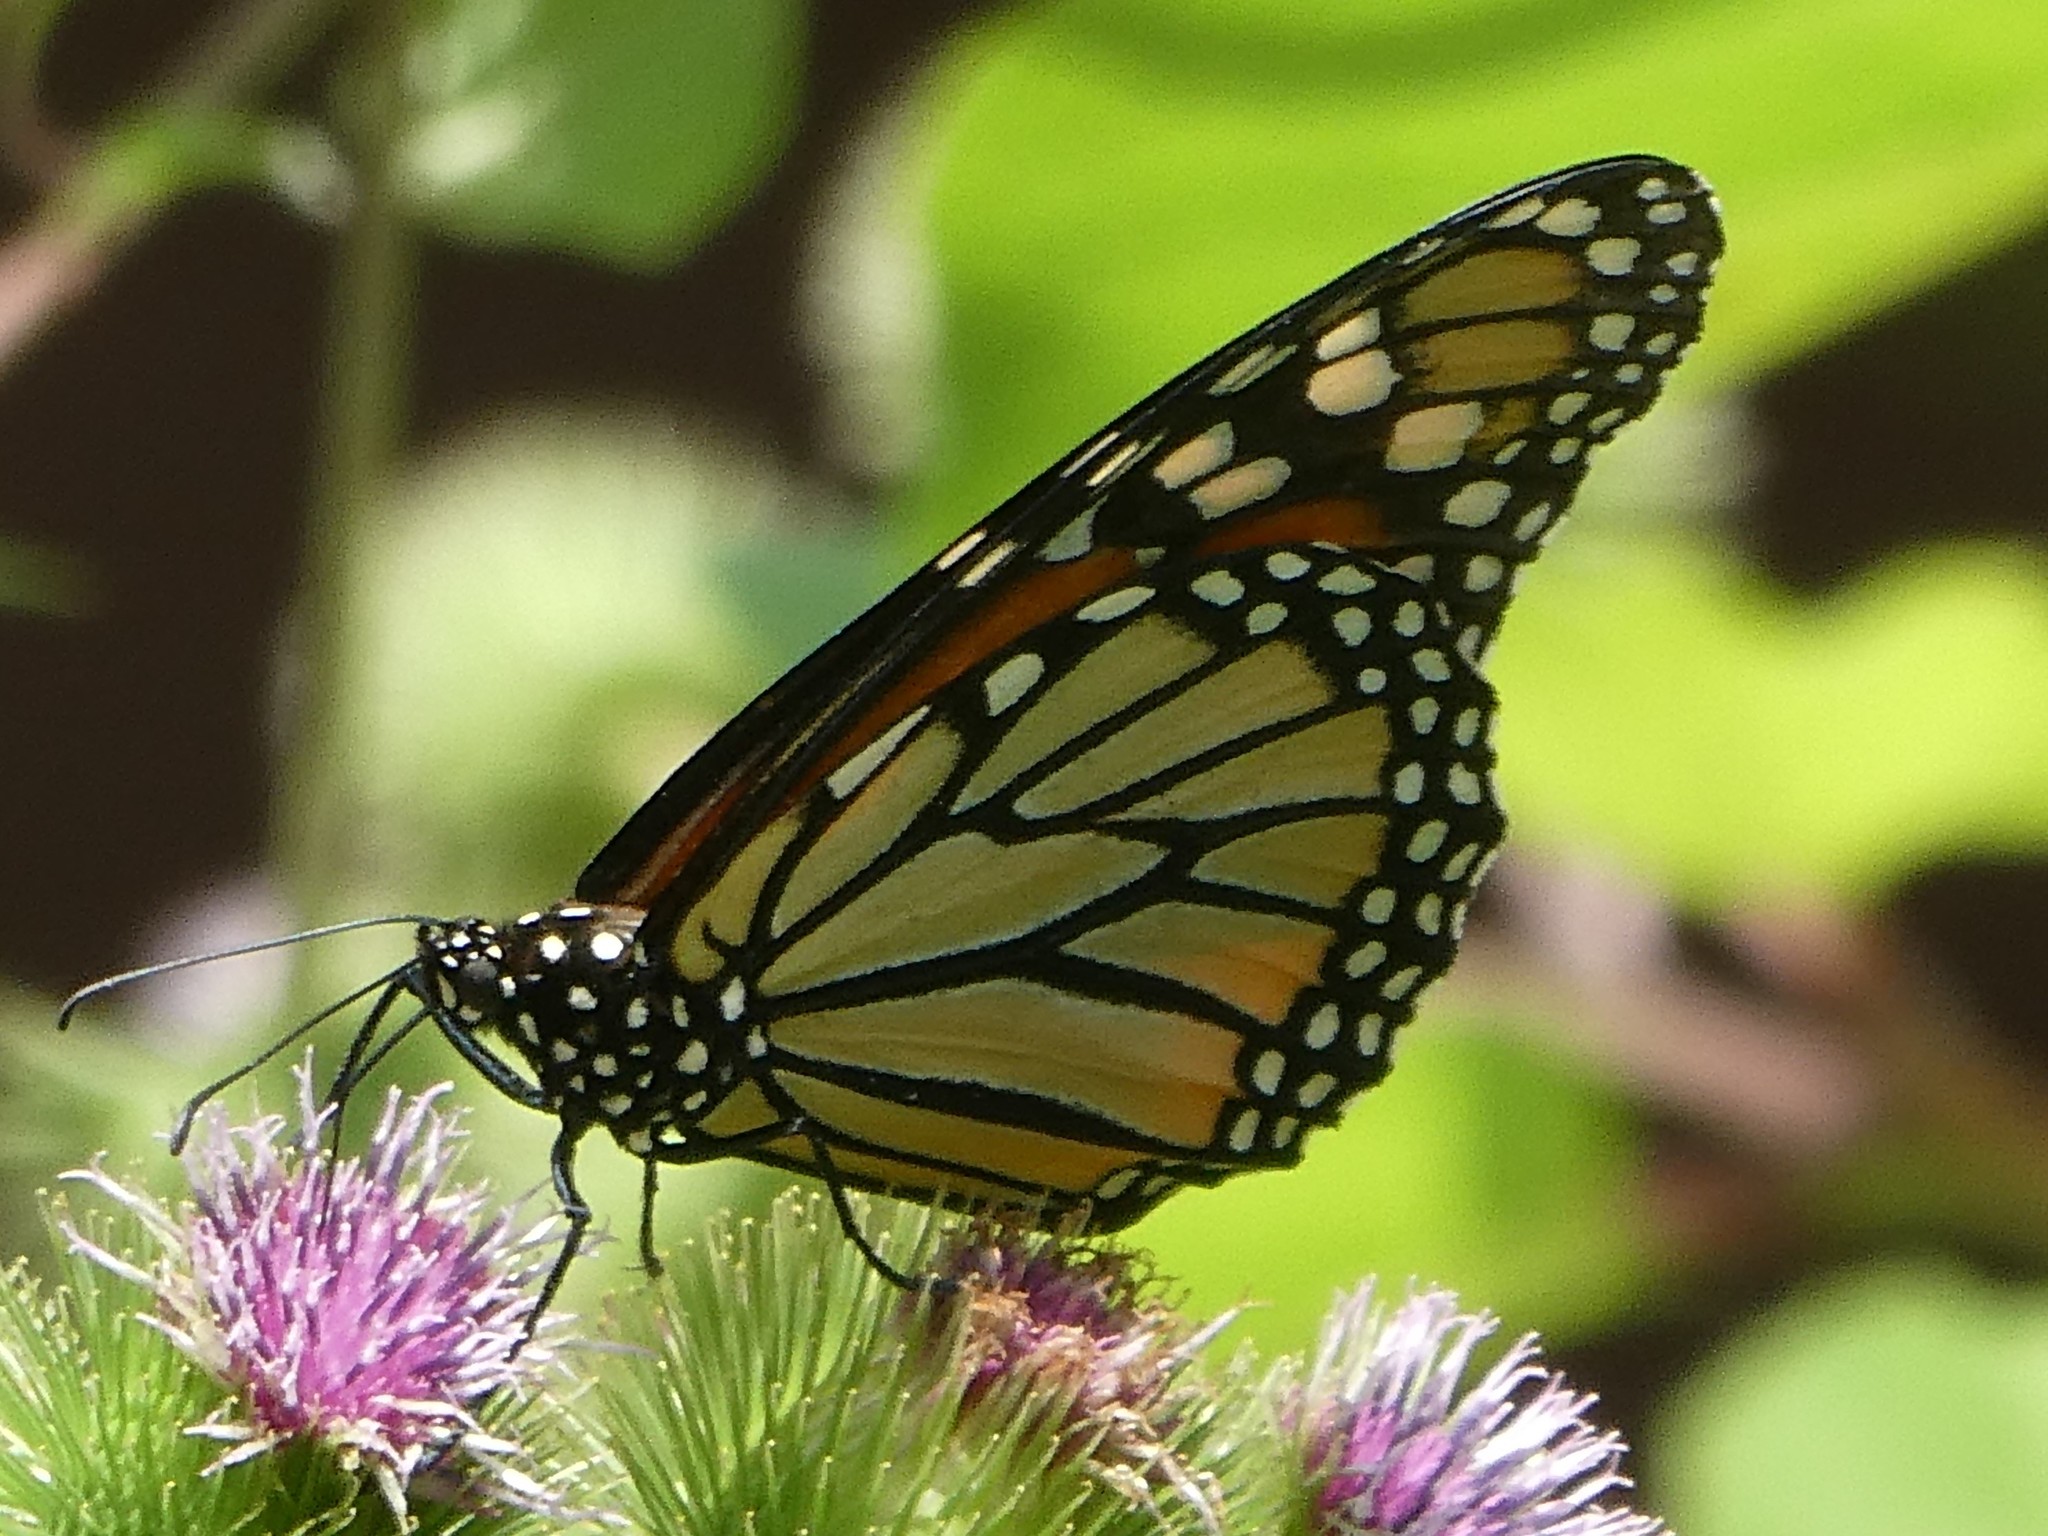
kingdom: Animalia
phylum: Arthropoda
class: Insecta
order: Lepidoptera
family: Nymphalidae
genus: Danaus
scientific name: Danaus plexippus
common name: Monarch
